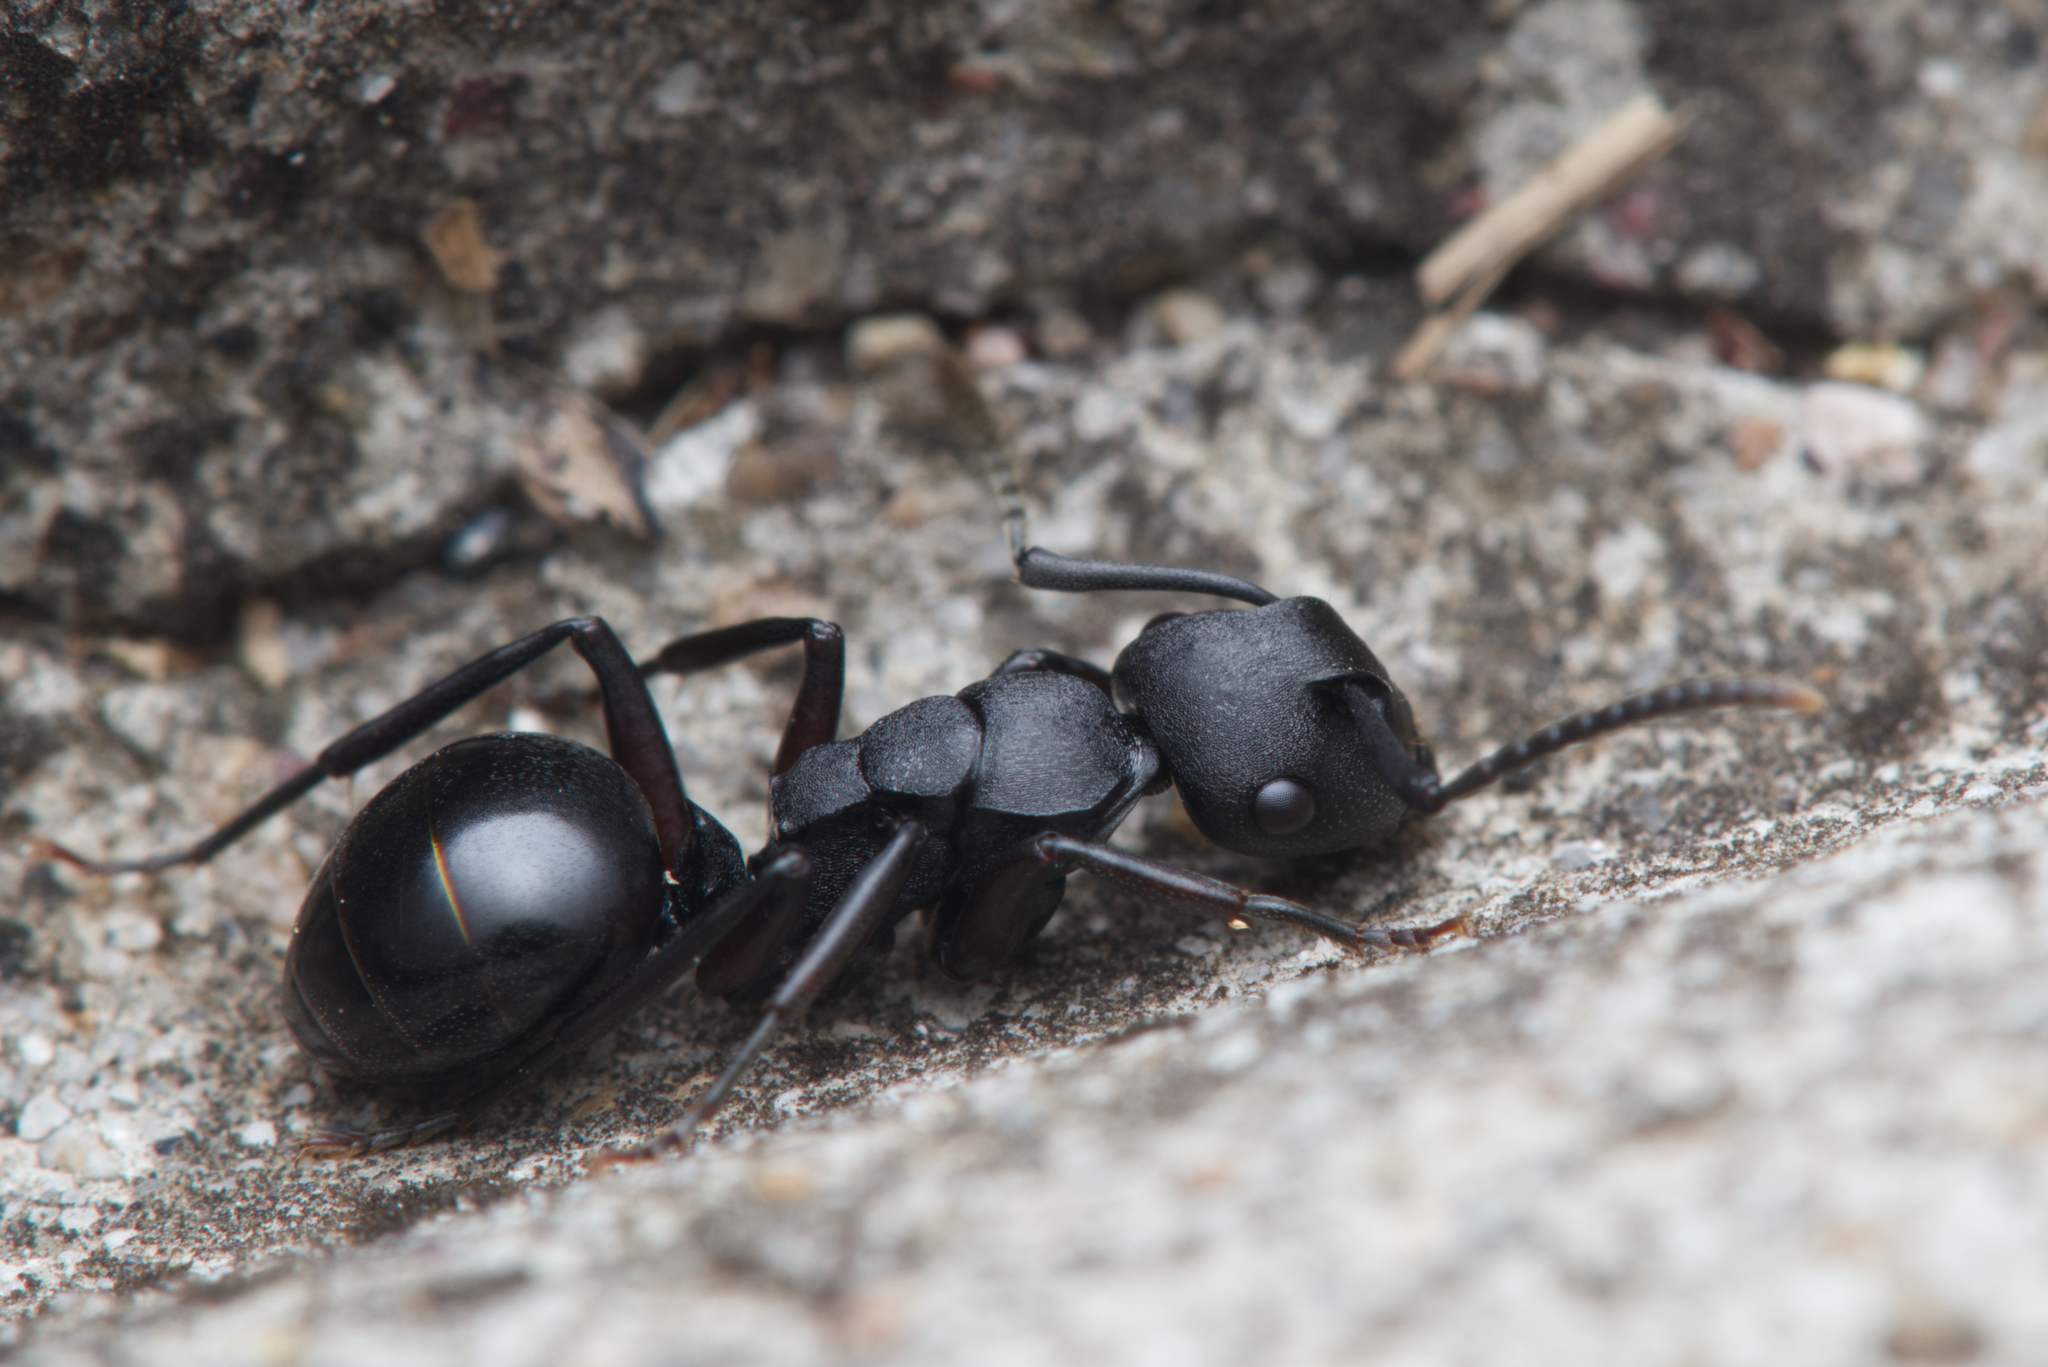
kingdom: Animalia
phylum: Arthropoda
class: Insecta
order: Hymenoptera
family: Formicidae
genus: Polyrhachis
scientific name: Polyrhachis templi
